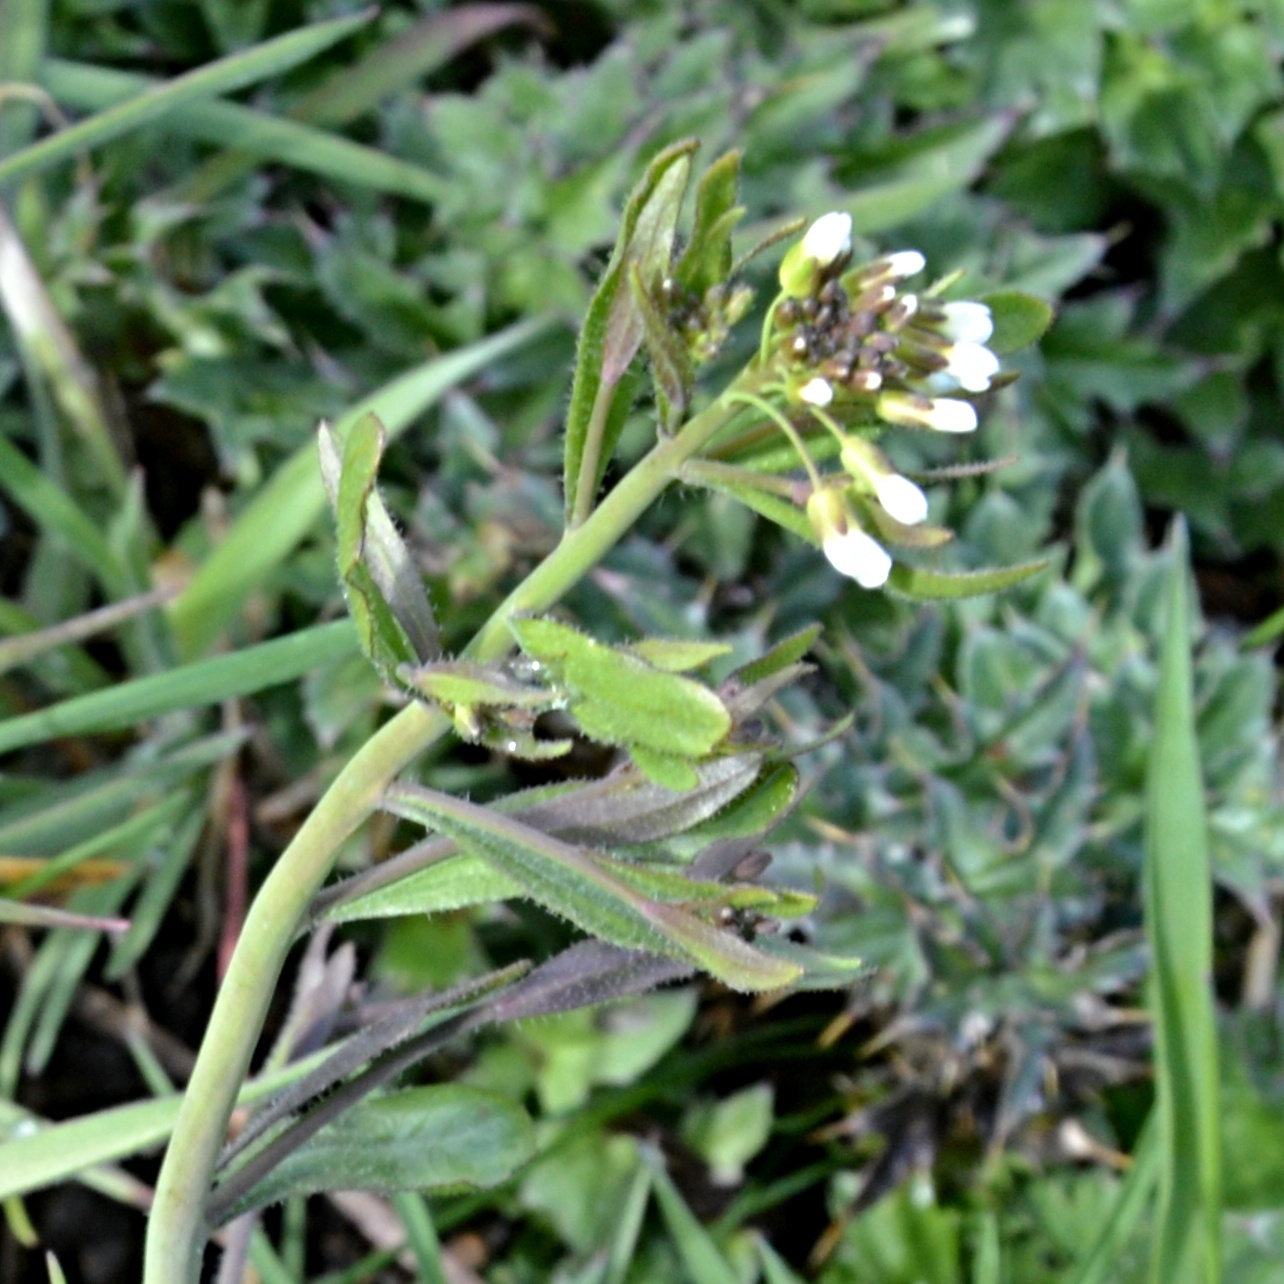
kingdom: Plantae
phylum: Tracheophyta
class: Magnoliopsida
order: Brassicales
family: Brassicaceae
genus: Capsella
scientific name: Capsella bursa-pastoris
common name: Shepherd's purse
